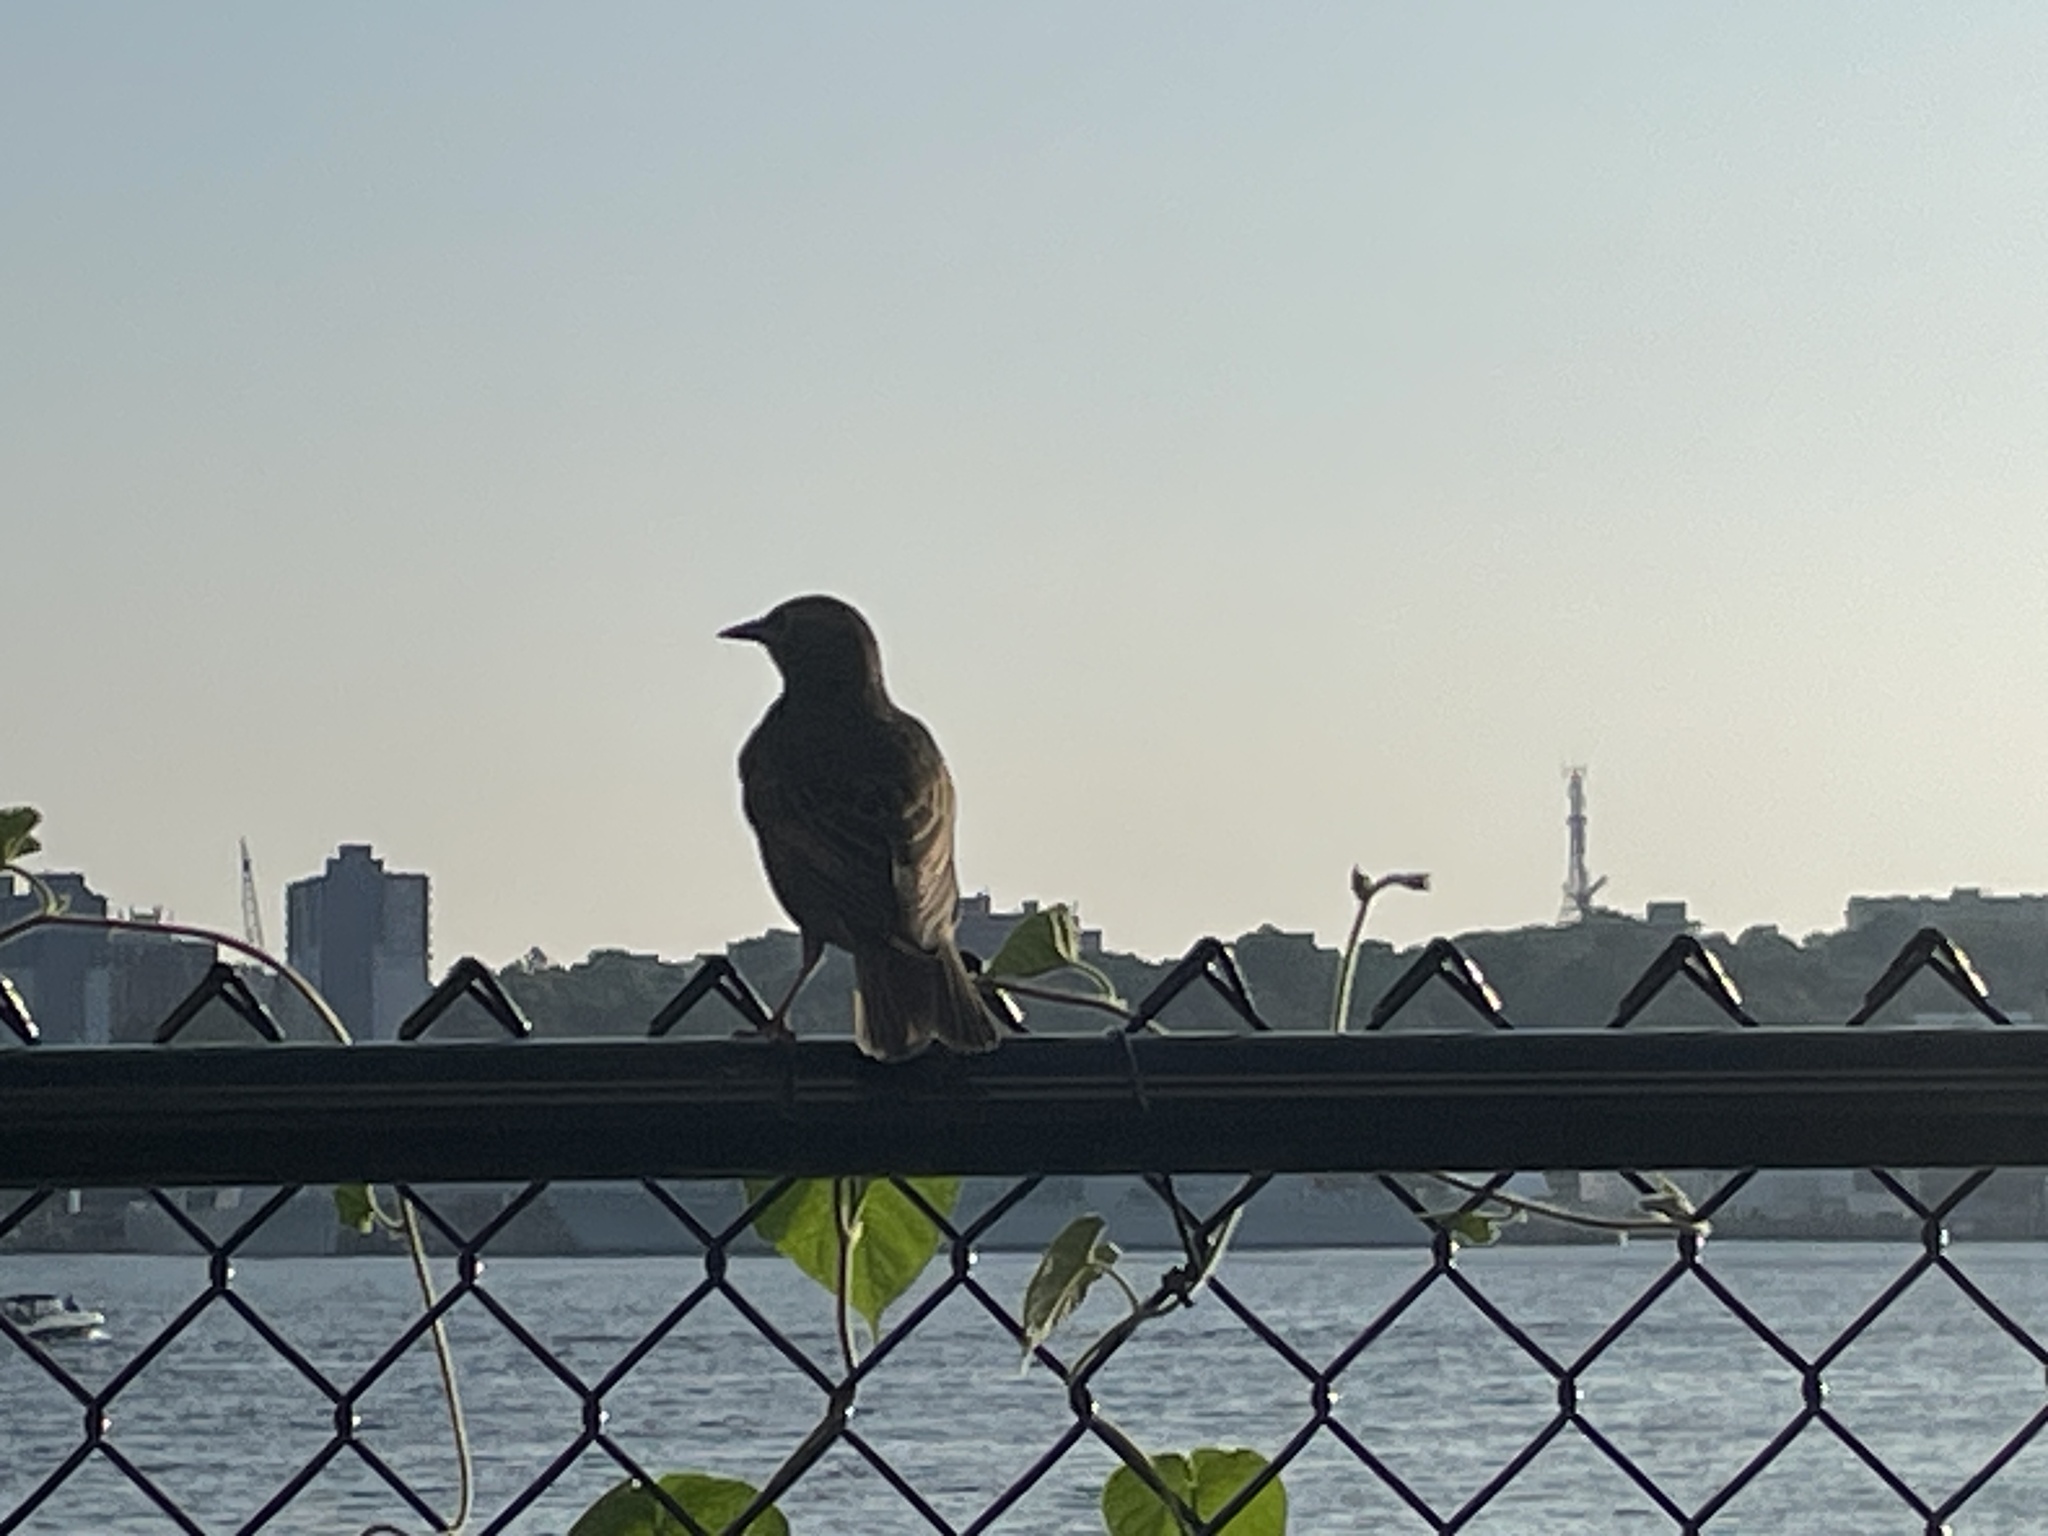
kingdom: Animalia
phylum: Chordata
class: Aves
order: Passeriformes
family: Sturnidae
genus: Sturnus
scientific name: Sturnus vulgaris
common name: Common starling
